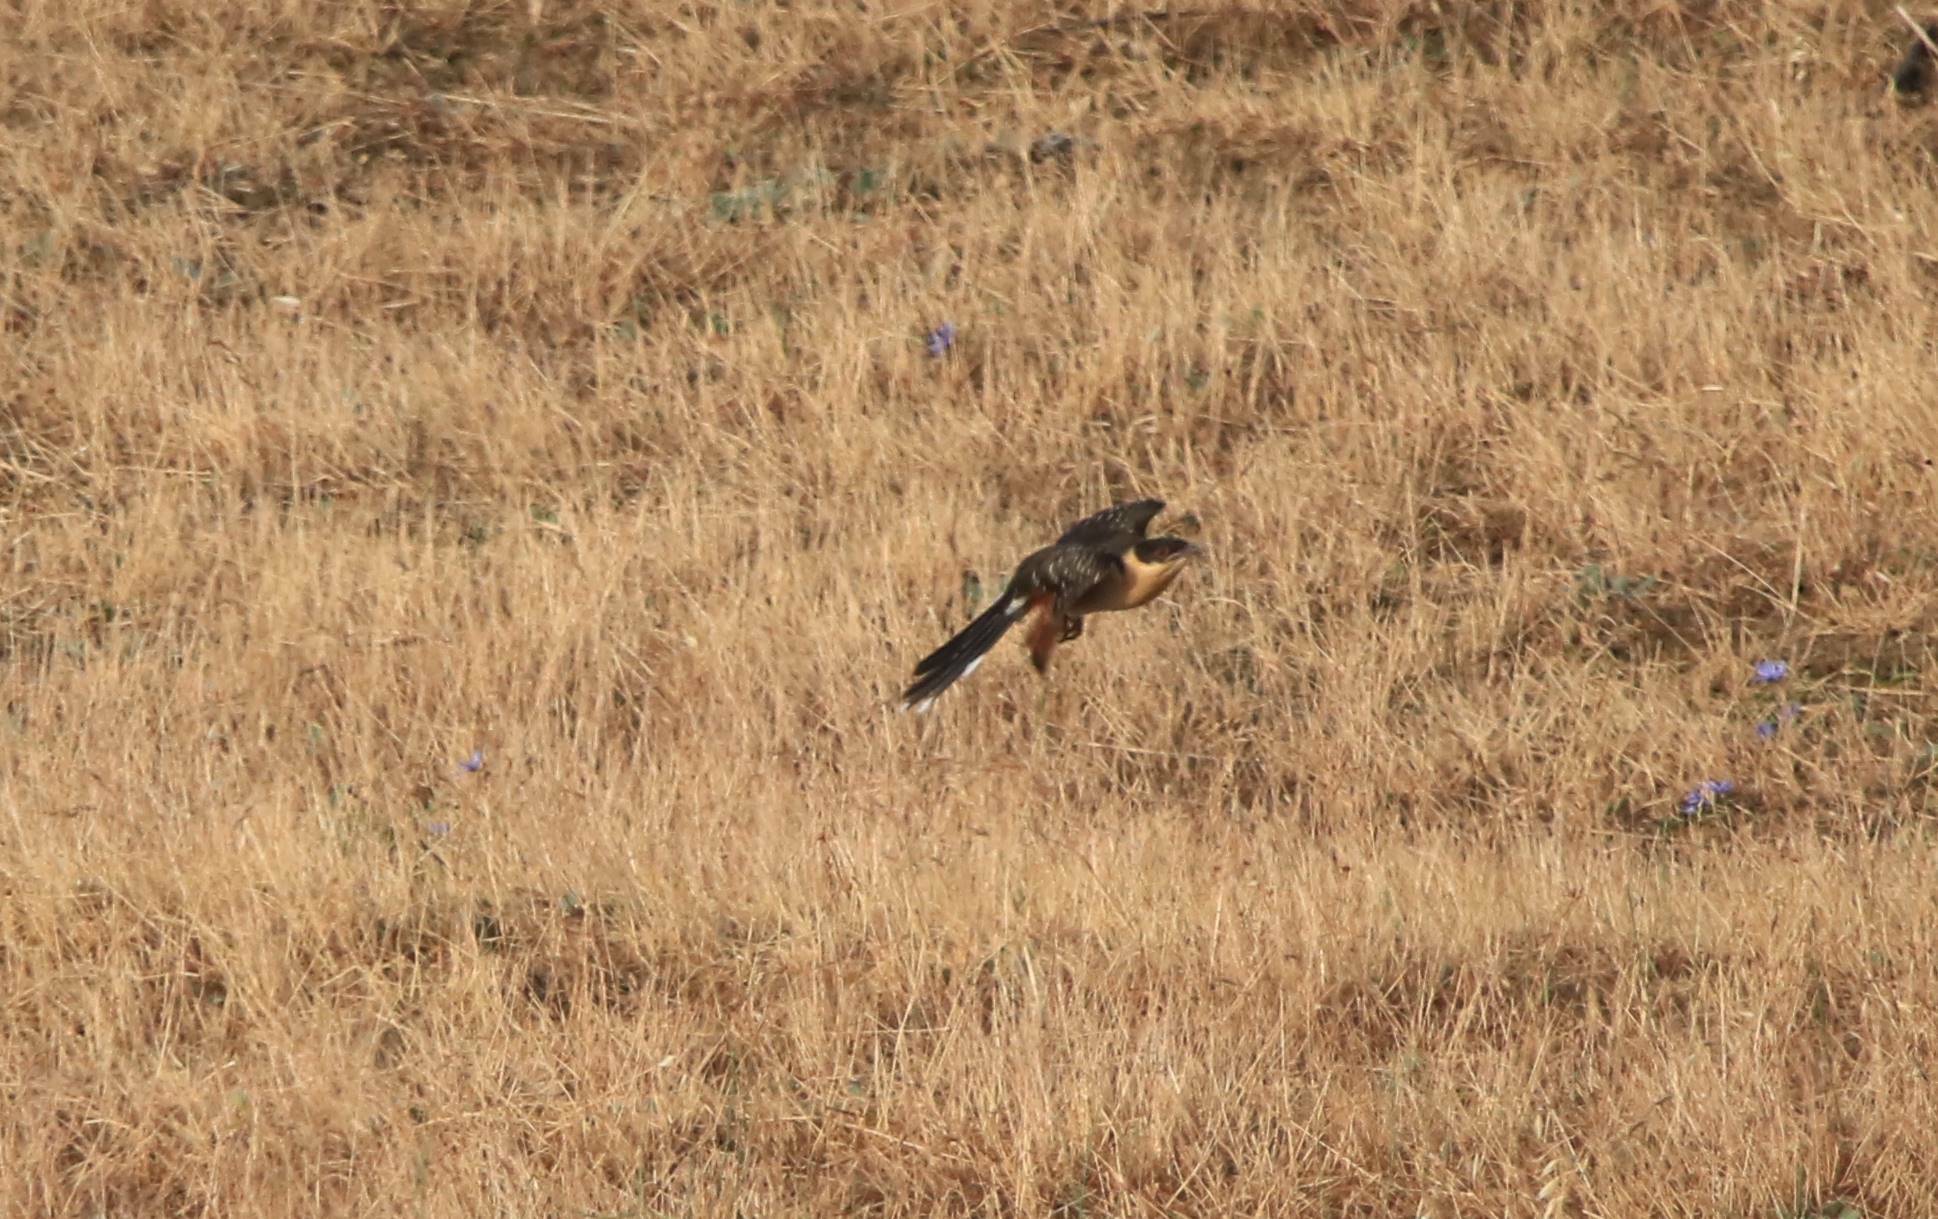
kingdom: Animalia
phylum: Chordata
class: Aves
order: Cuculiformes
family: Cuculidae
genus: Clamator
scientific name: Clamator glandarius
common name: Great spotted cuckoo
